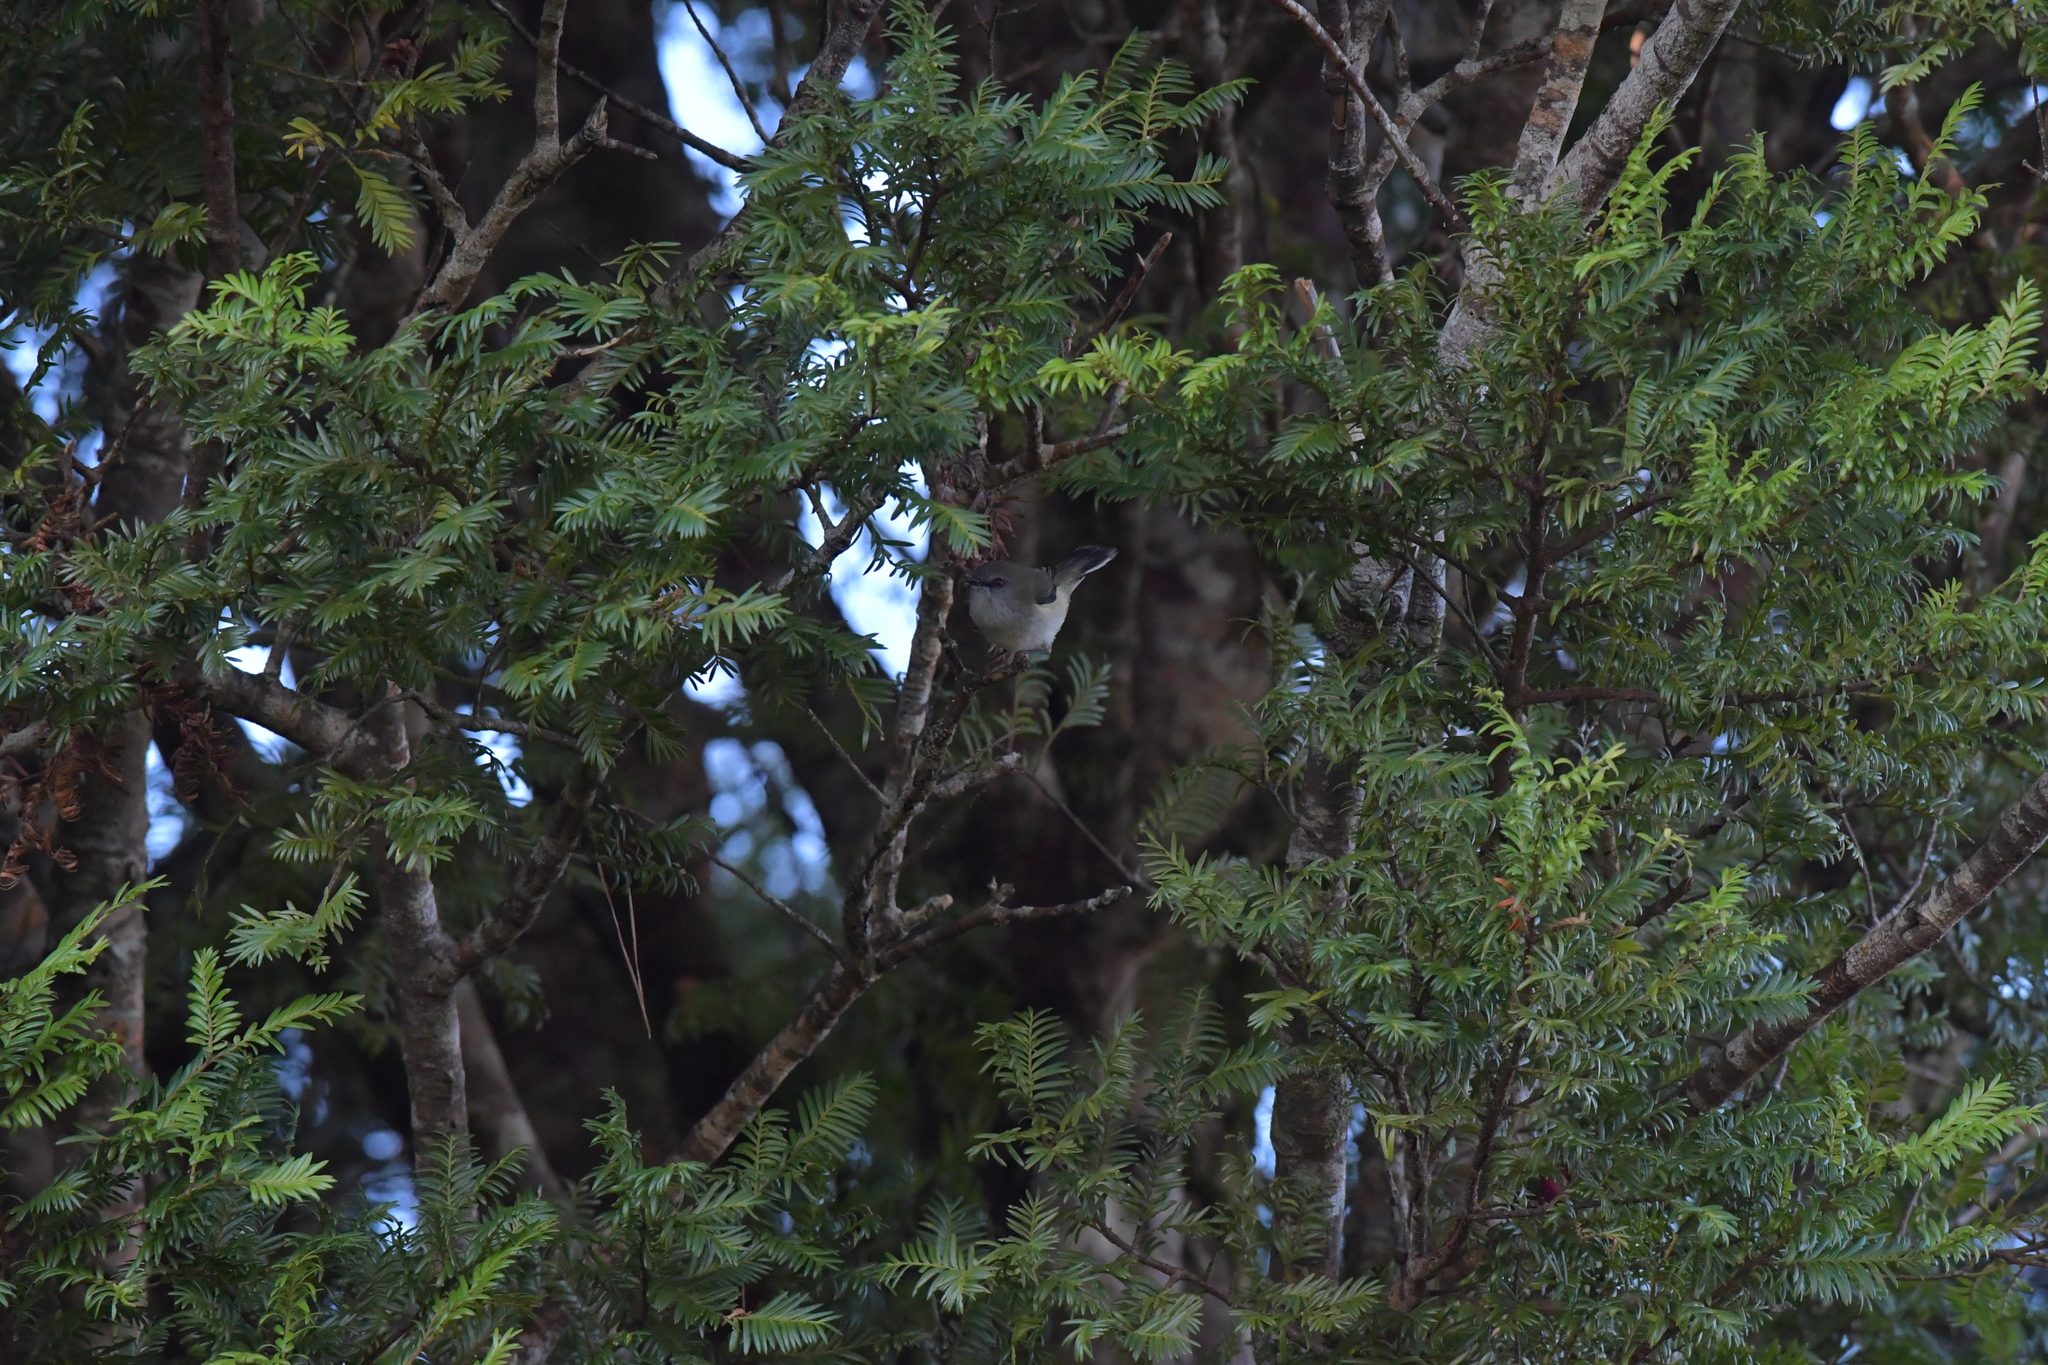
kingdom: Animalia
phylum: Chordata
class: Aves
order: Passeriformes
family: Acanthizidae
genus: Gerygone
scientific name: Gerygone igata
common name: Grey gerygone
